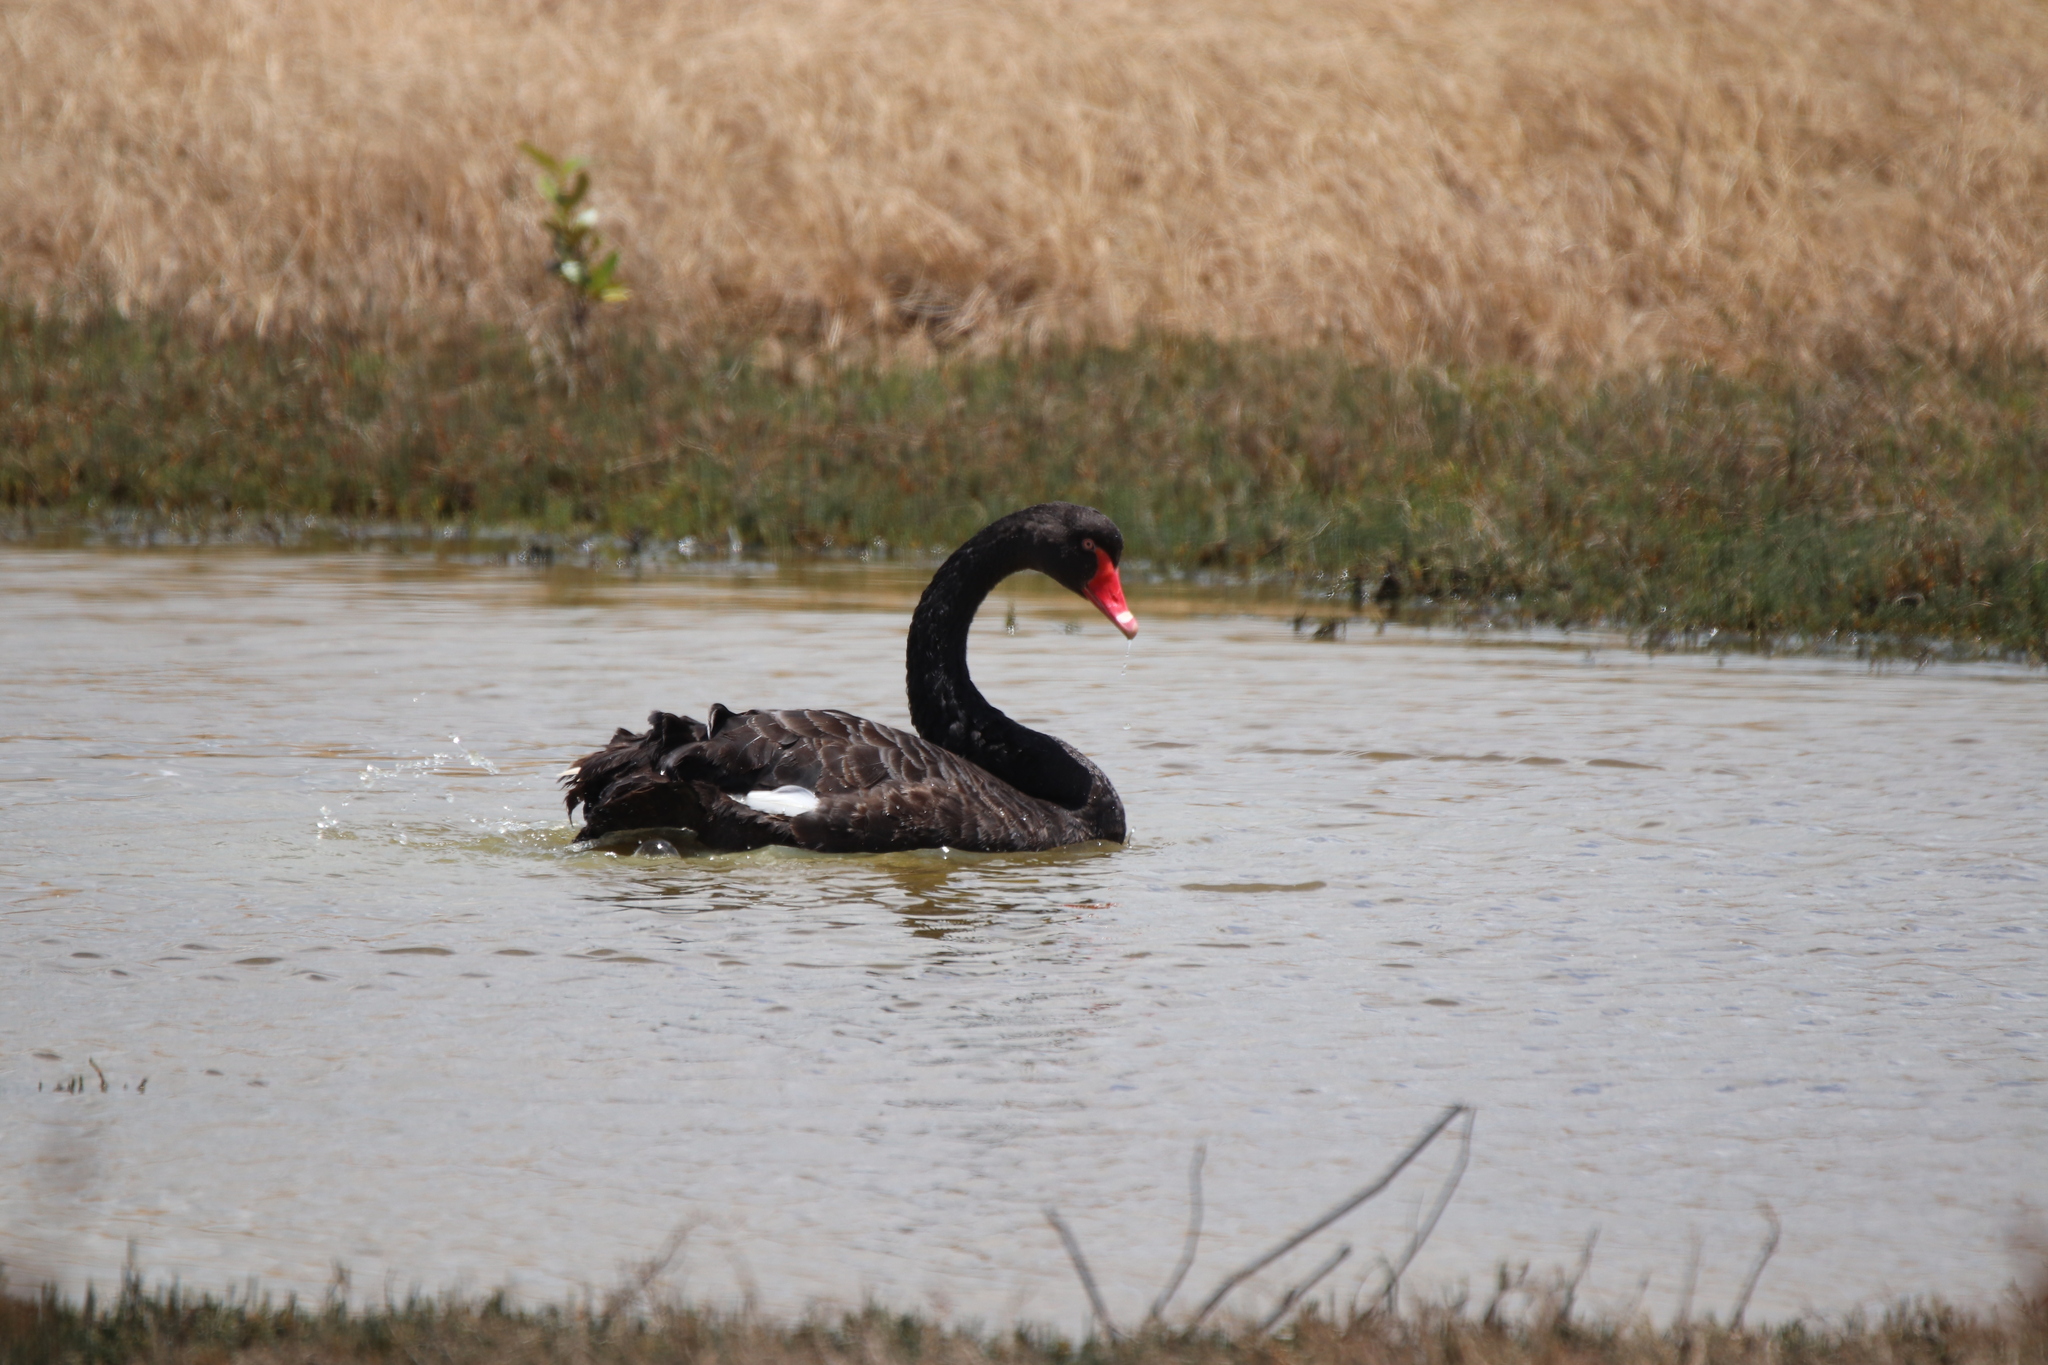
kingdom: Animalia
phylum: Chordata
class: Aves
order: Anseriformes
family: Anatidae
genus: Cygnus
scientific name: Cygnus atratus
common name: Black swan
